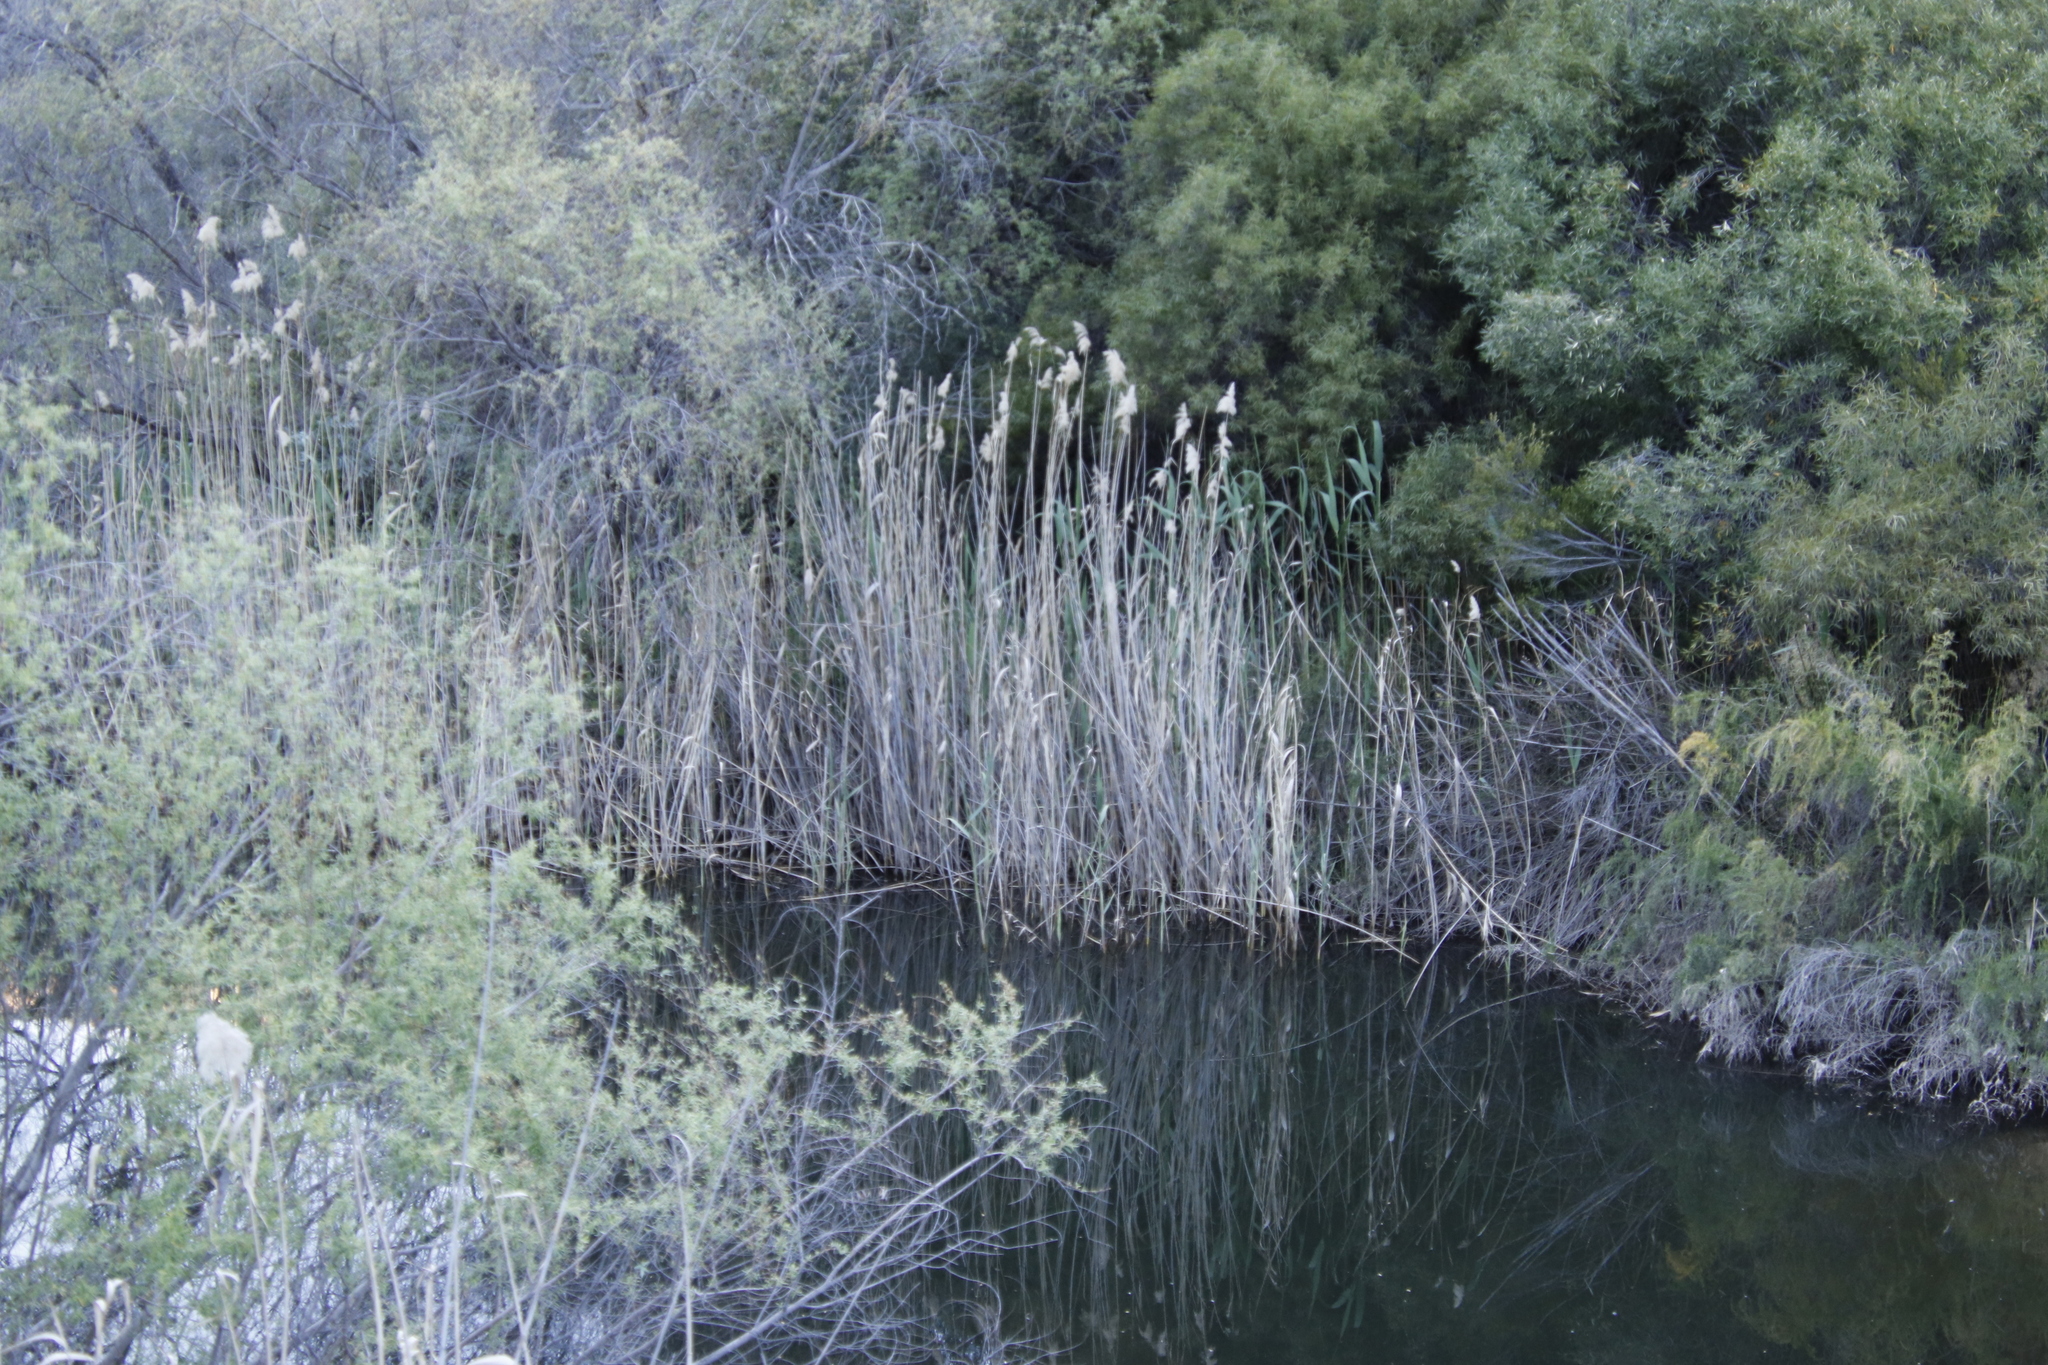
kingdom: Plantae
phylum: Tracheophyta
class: Liliopsida
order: Poales
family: Poaceae
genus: Phragmites
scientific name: Phragmites australis
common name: Common reed
